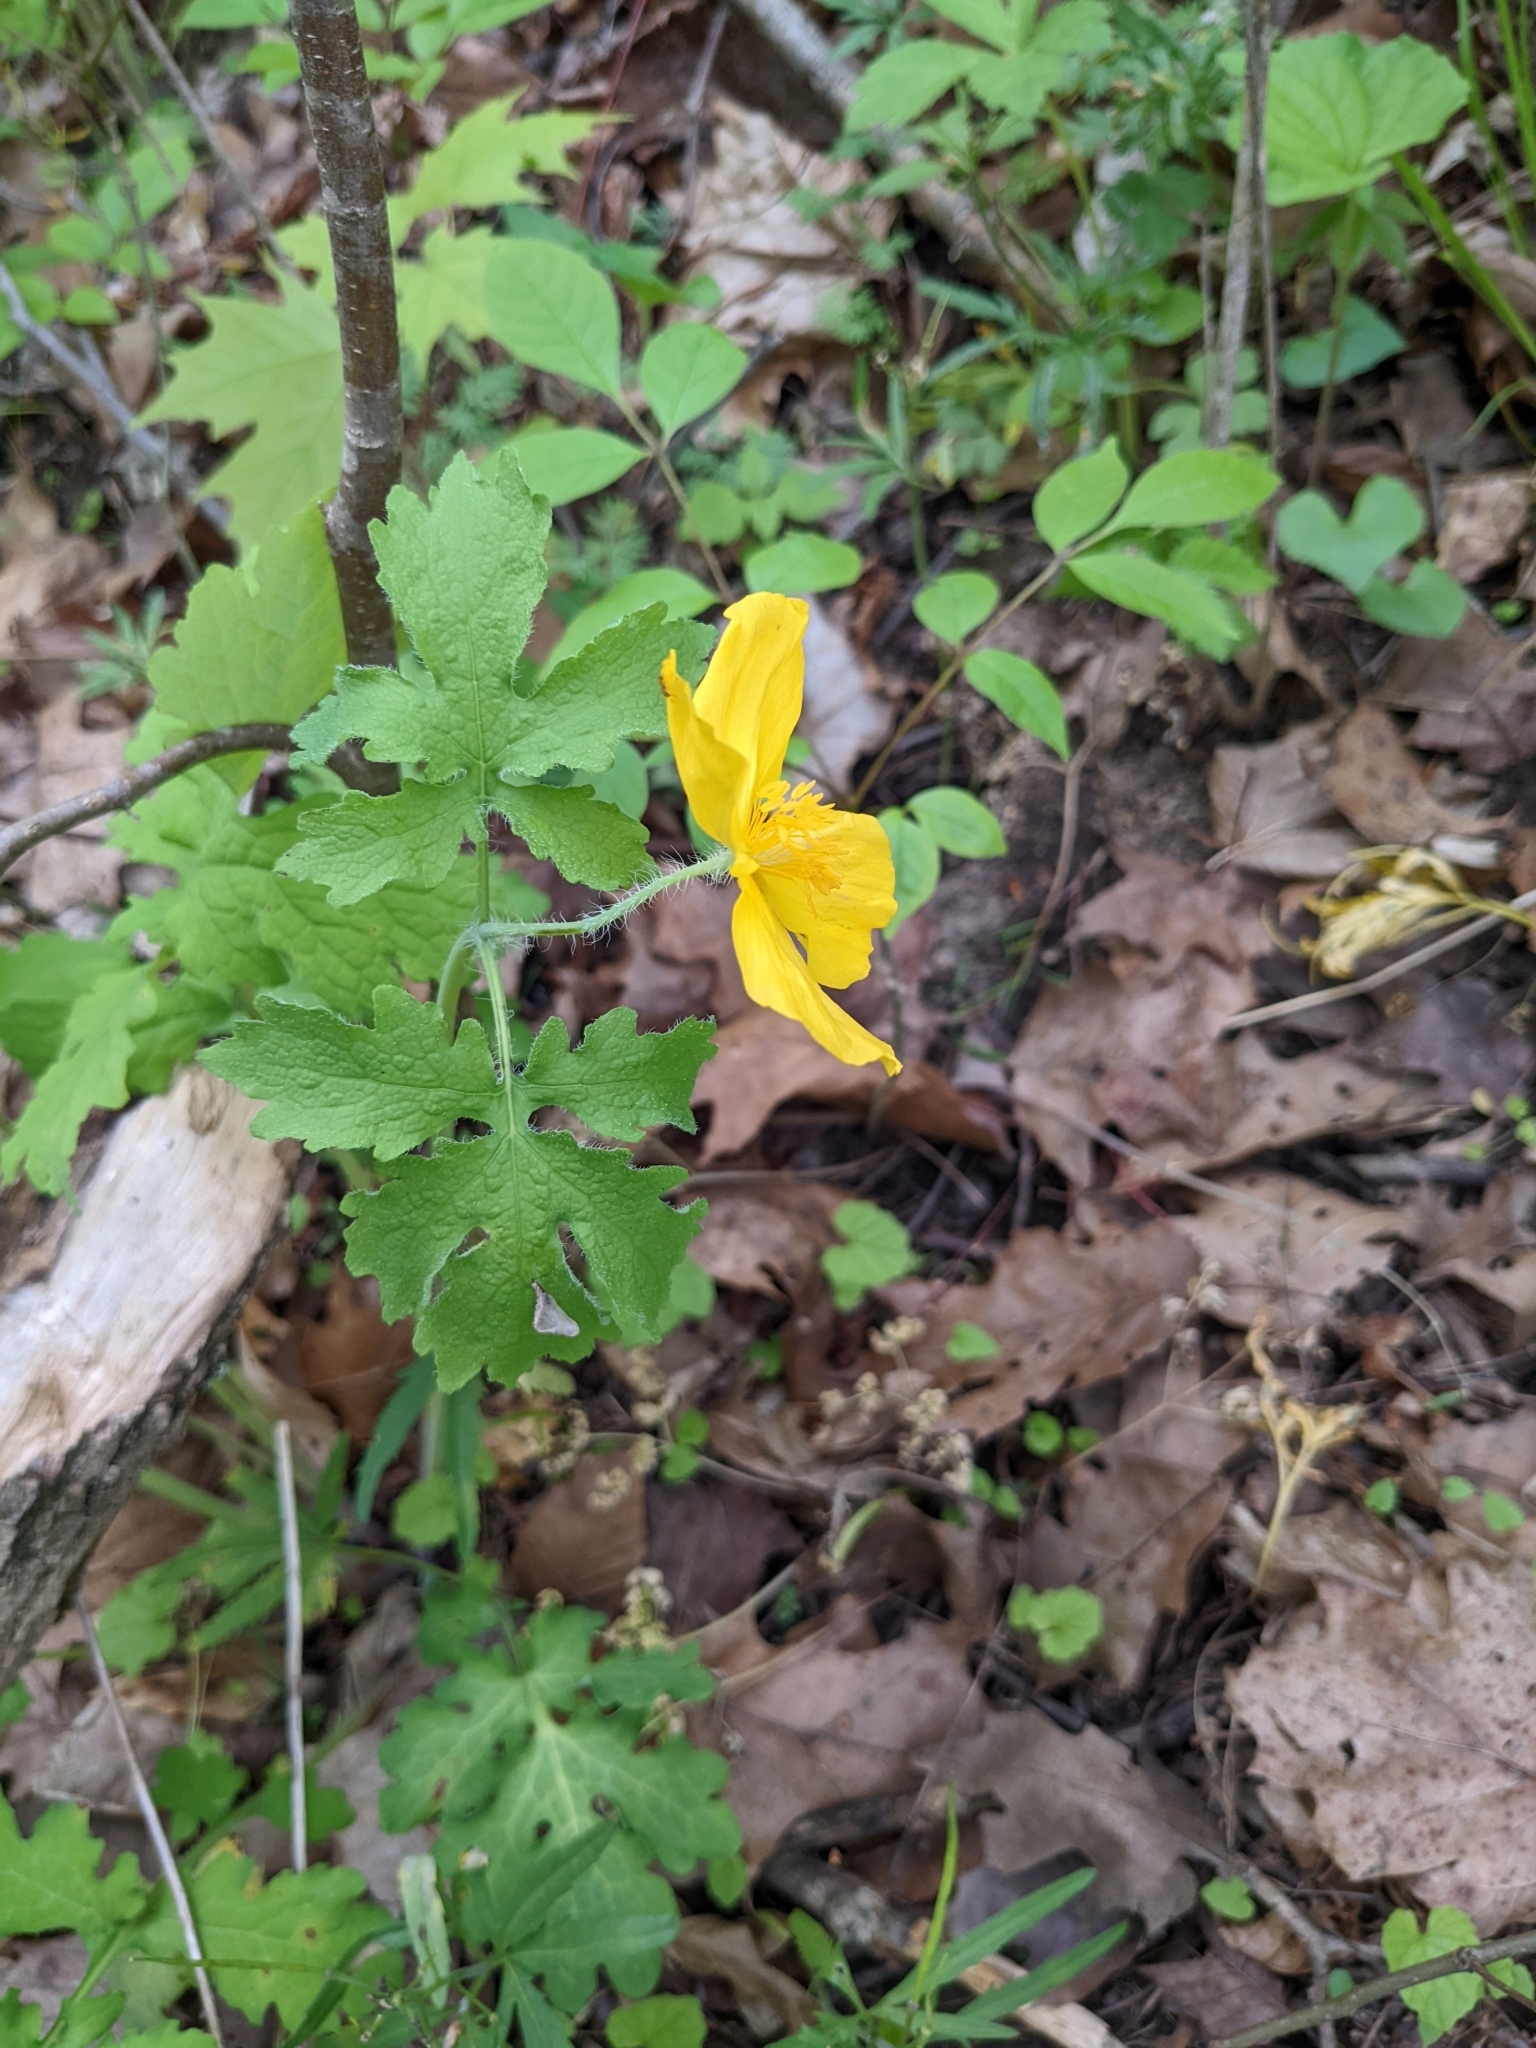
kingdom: Plantae
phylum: Tracheophyta
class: Magnoliopsida
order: Ranunculales
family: Papaveraceae
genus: Stylophorum
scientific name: Stylophorum diphyllum
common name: Celandine poppy
